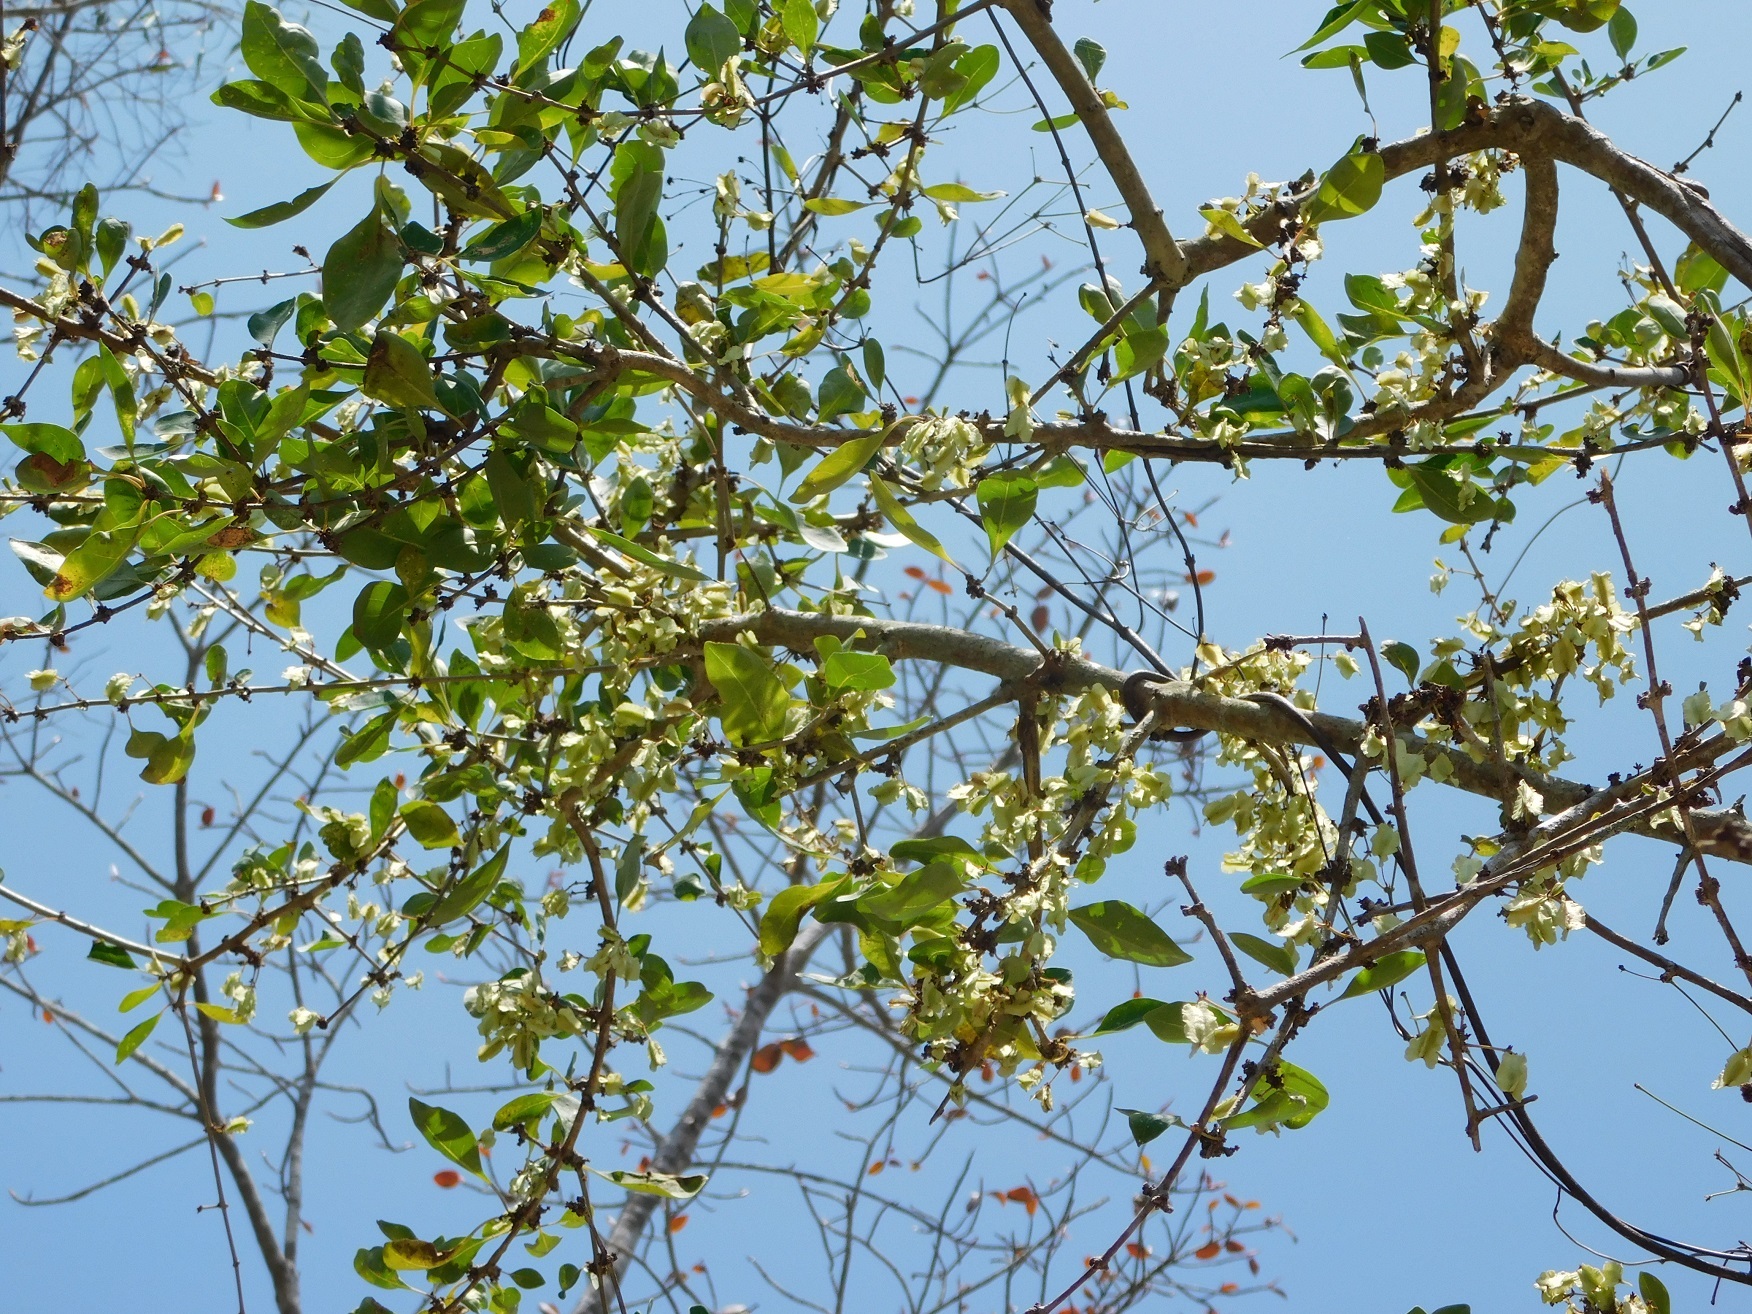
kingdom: Plantae
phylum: Tracheophyta
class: Magnoliopsida
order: Caryophyllales
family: Nyctaginaceae
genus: Grajalesia
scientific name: Grajalesia fasciculata
